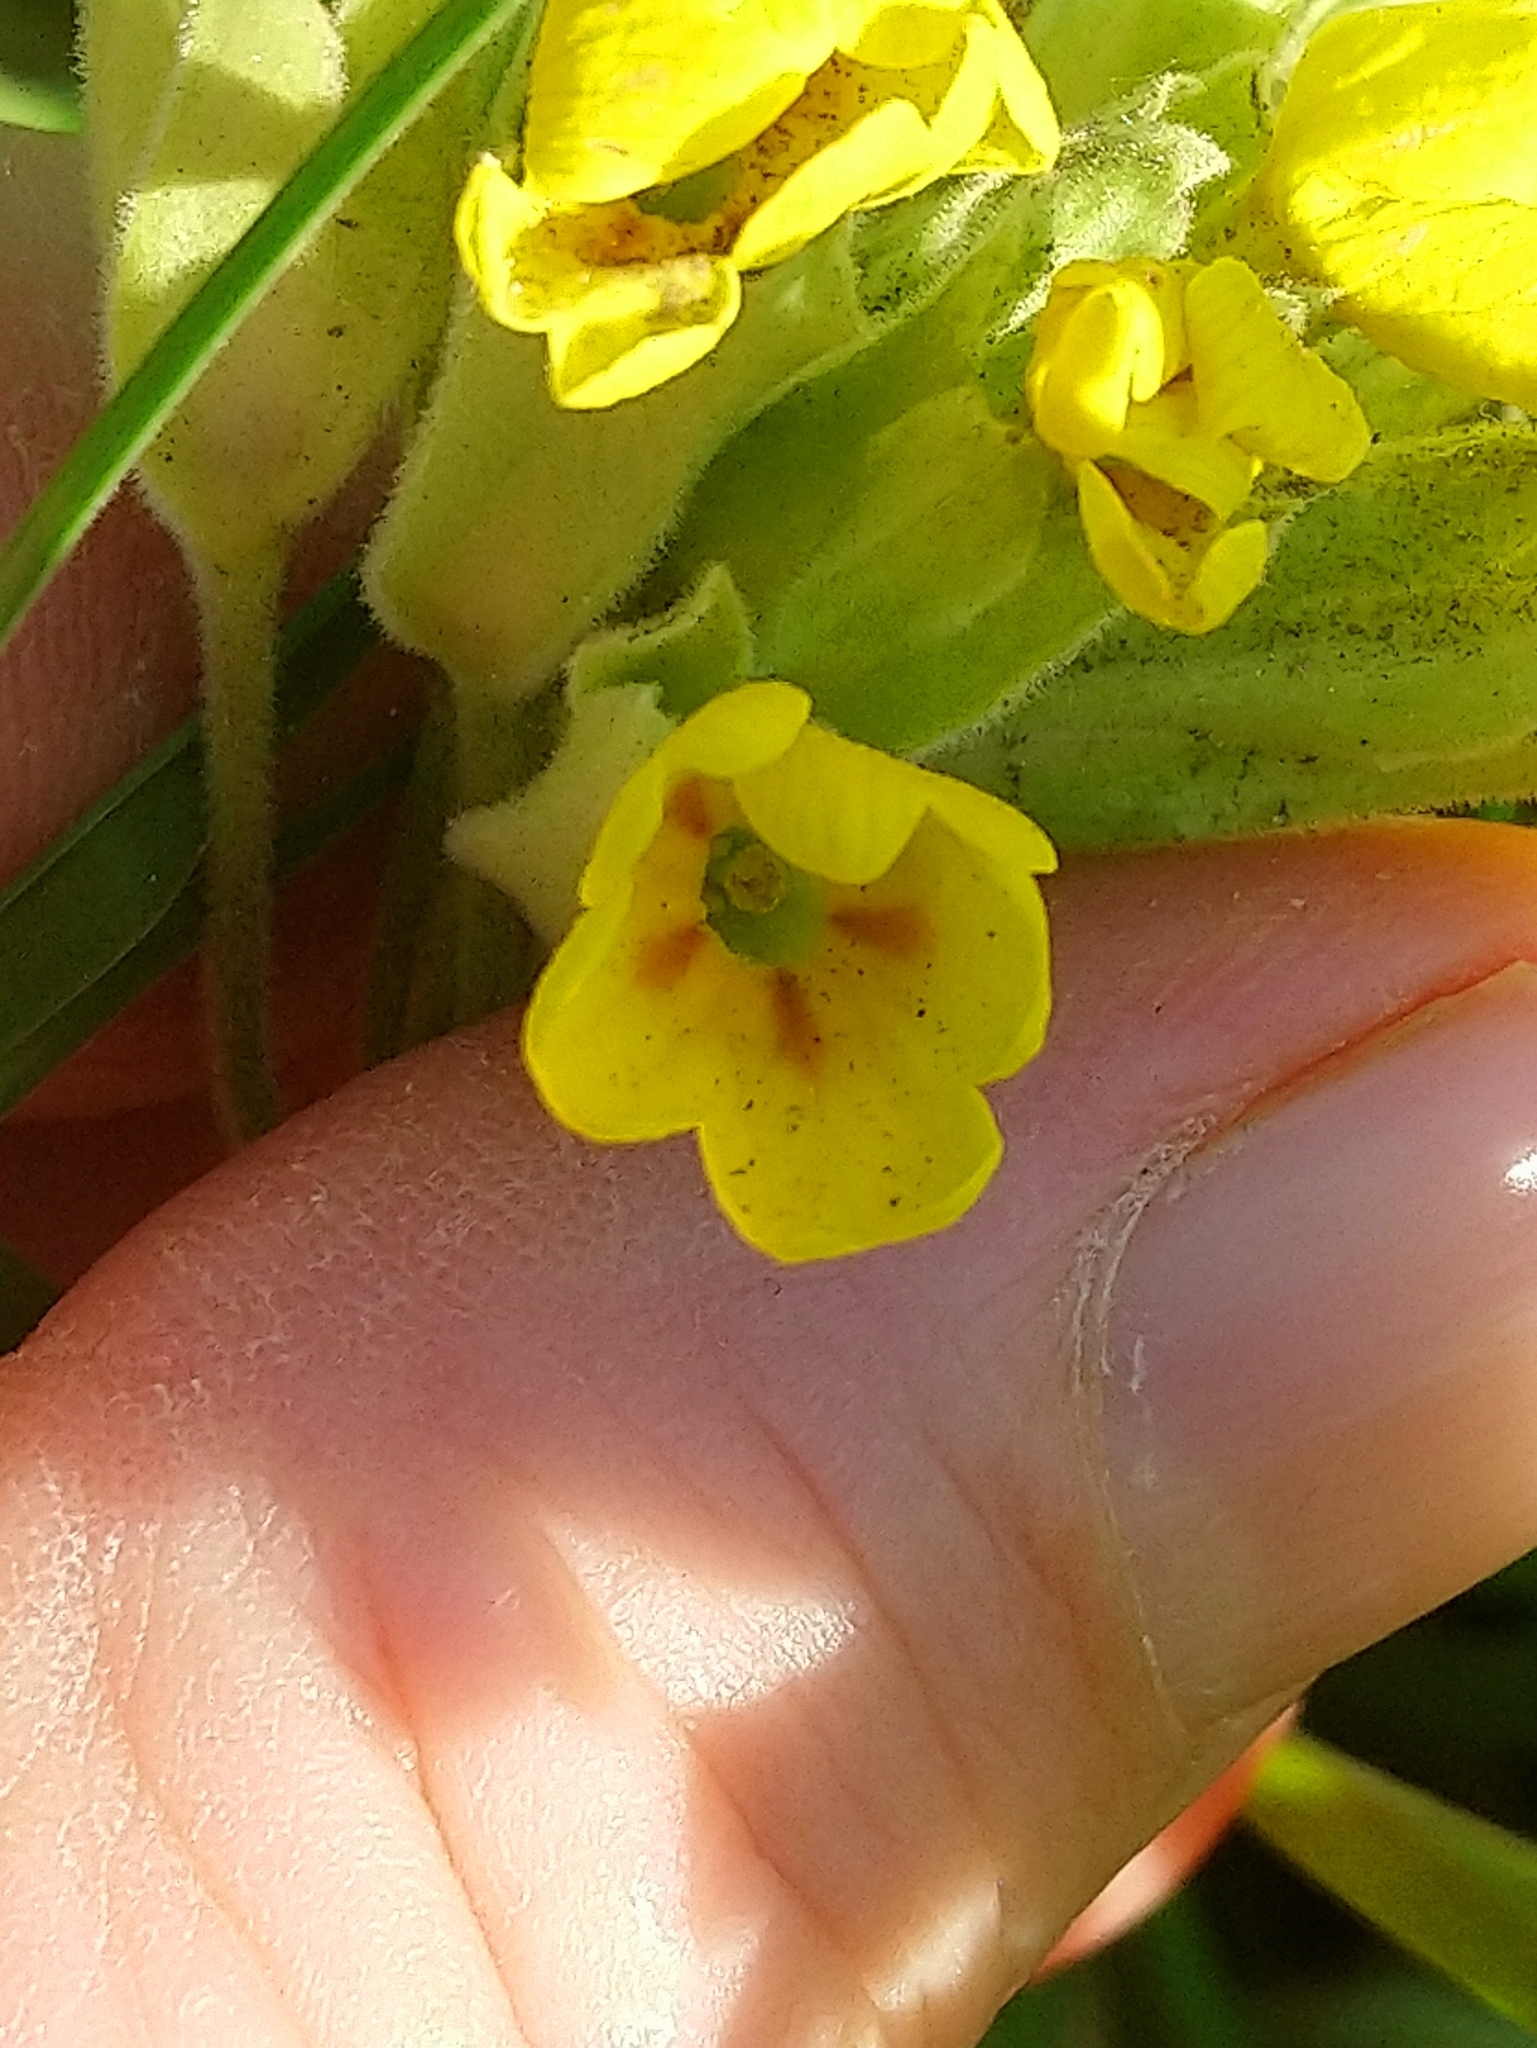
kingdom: Plantae
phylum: Tracheophyta
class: Magnoliopsida
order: Ericales
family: Primulaceae
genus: Primula
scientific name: Primula veris
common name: Cowslip
